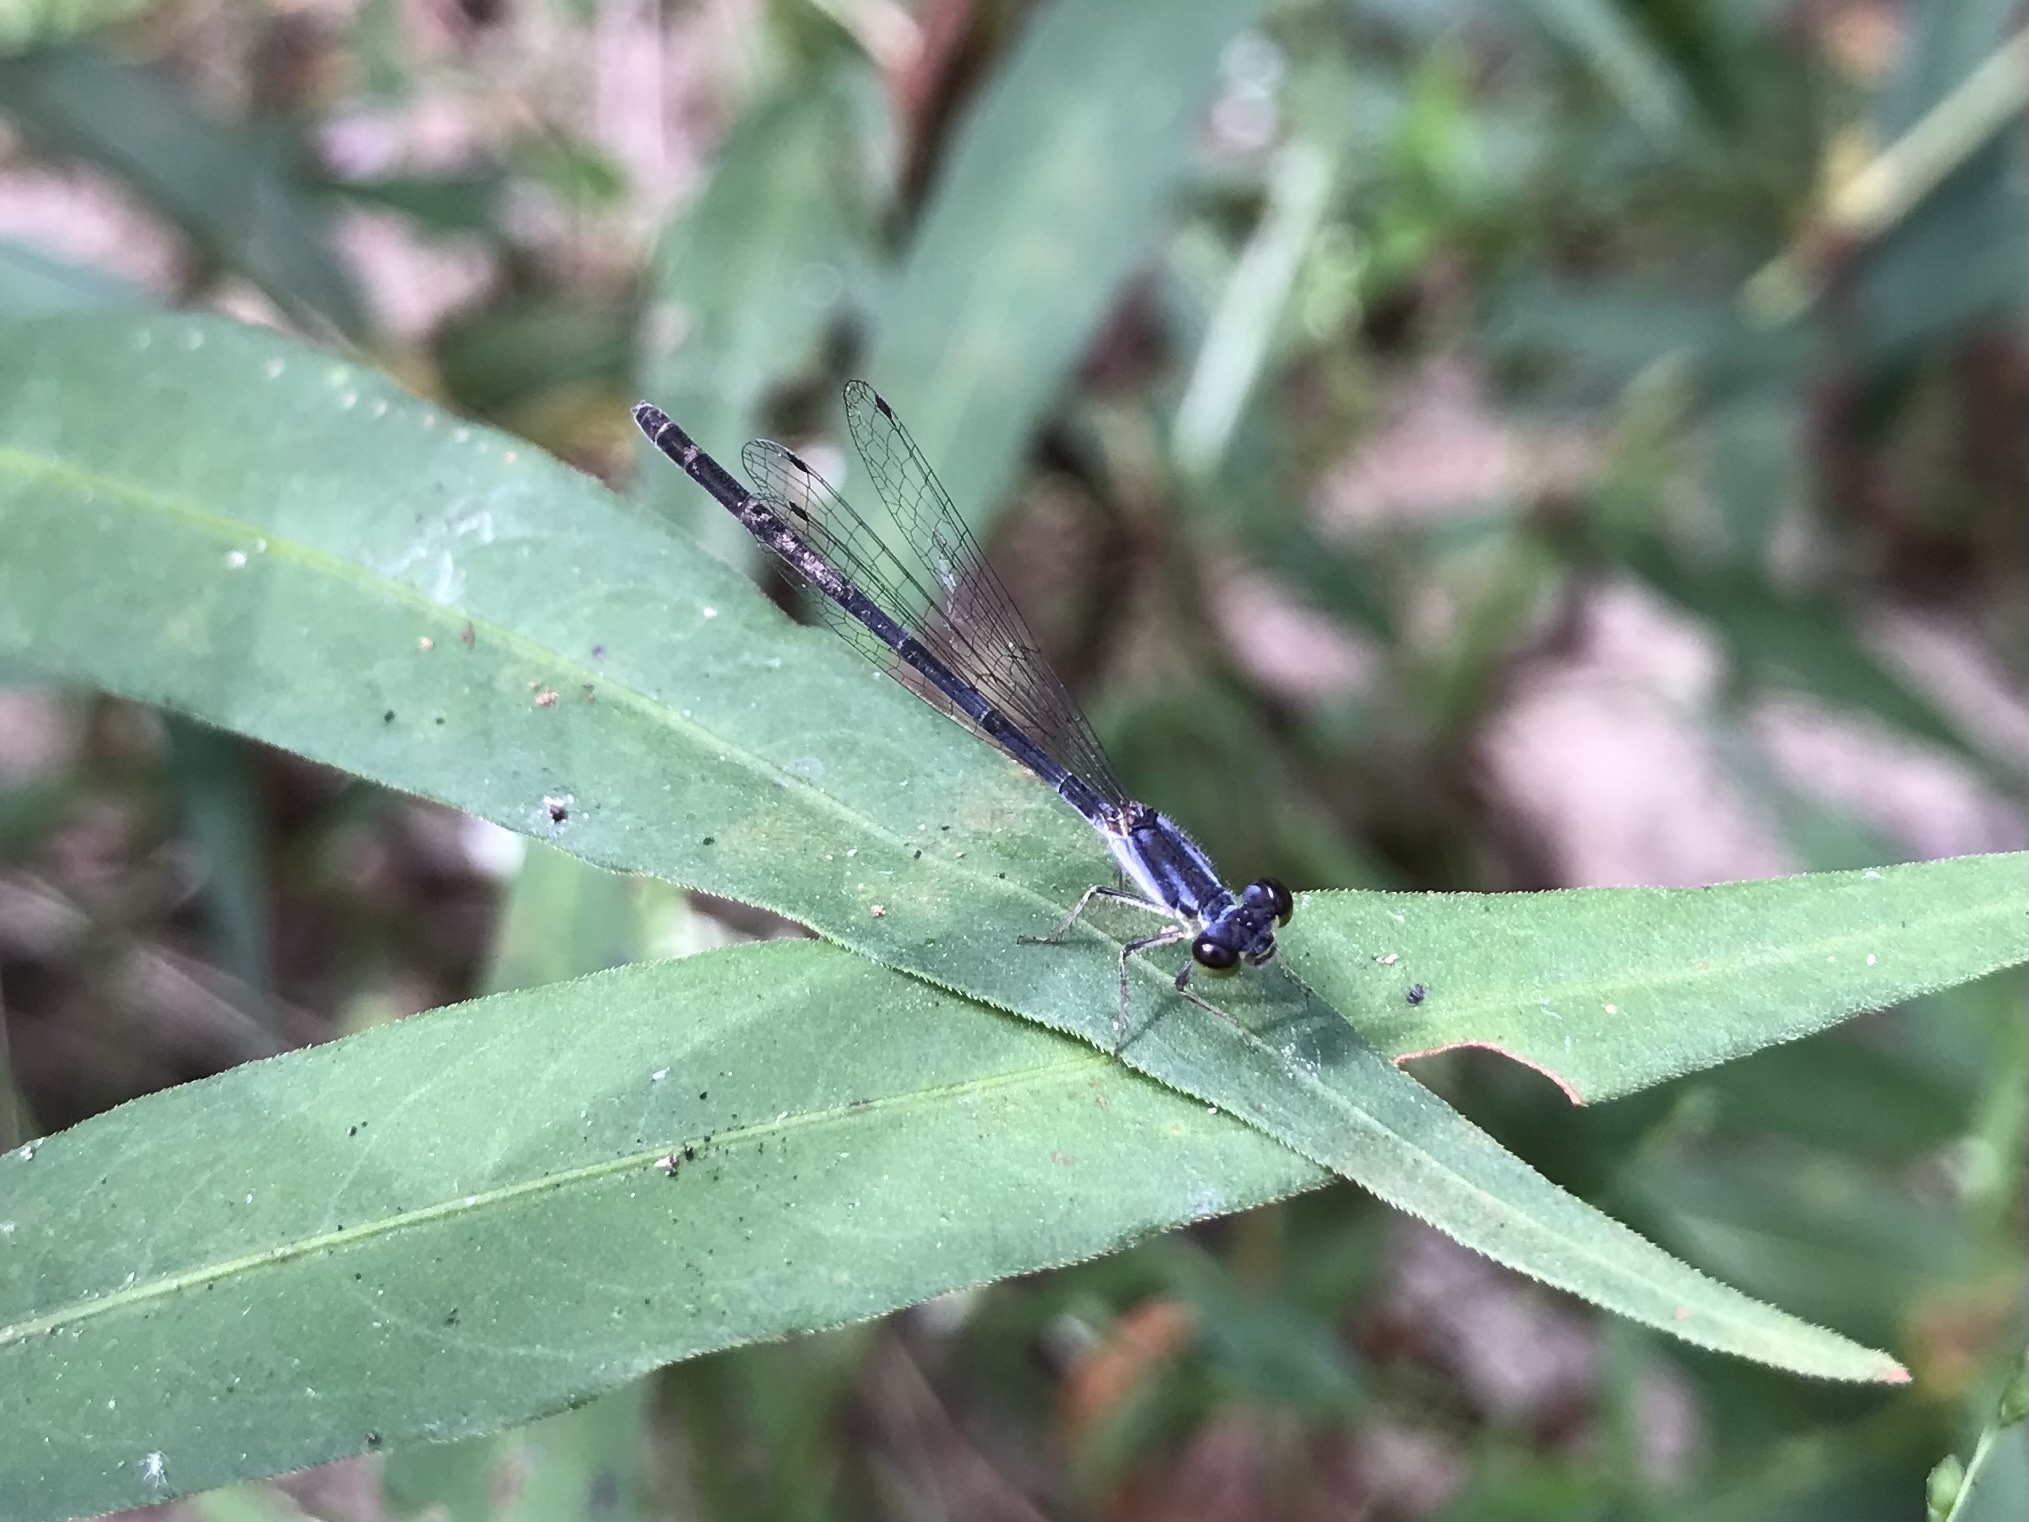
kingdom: Animalia
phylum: Arthropoda
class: Insecta
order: Odonata
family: Coenagrionidae
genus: Ischnura
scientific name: Ischnura posita
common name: Fragile forktail
